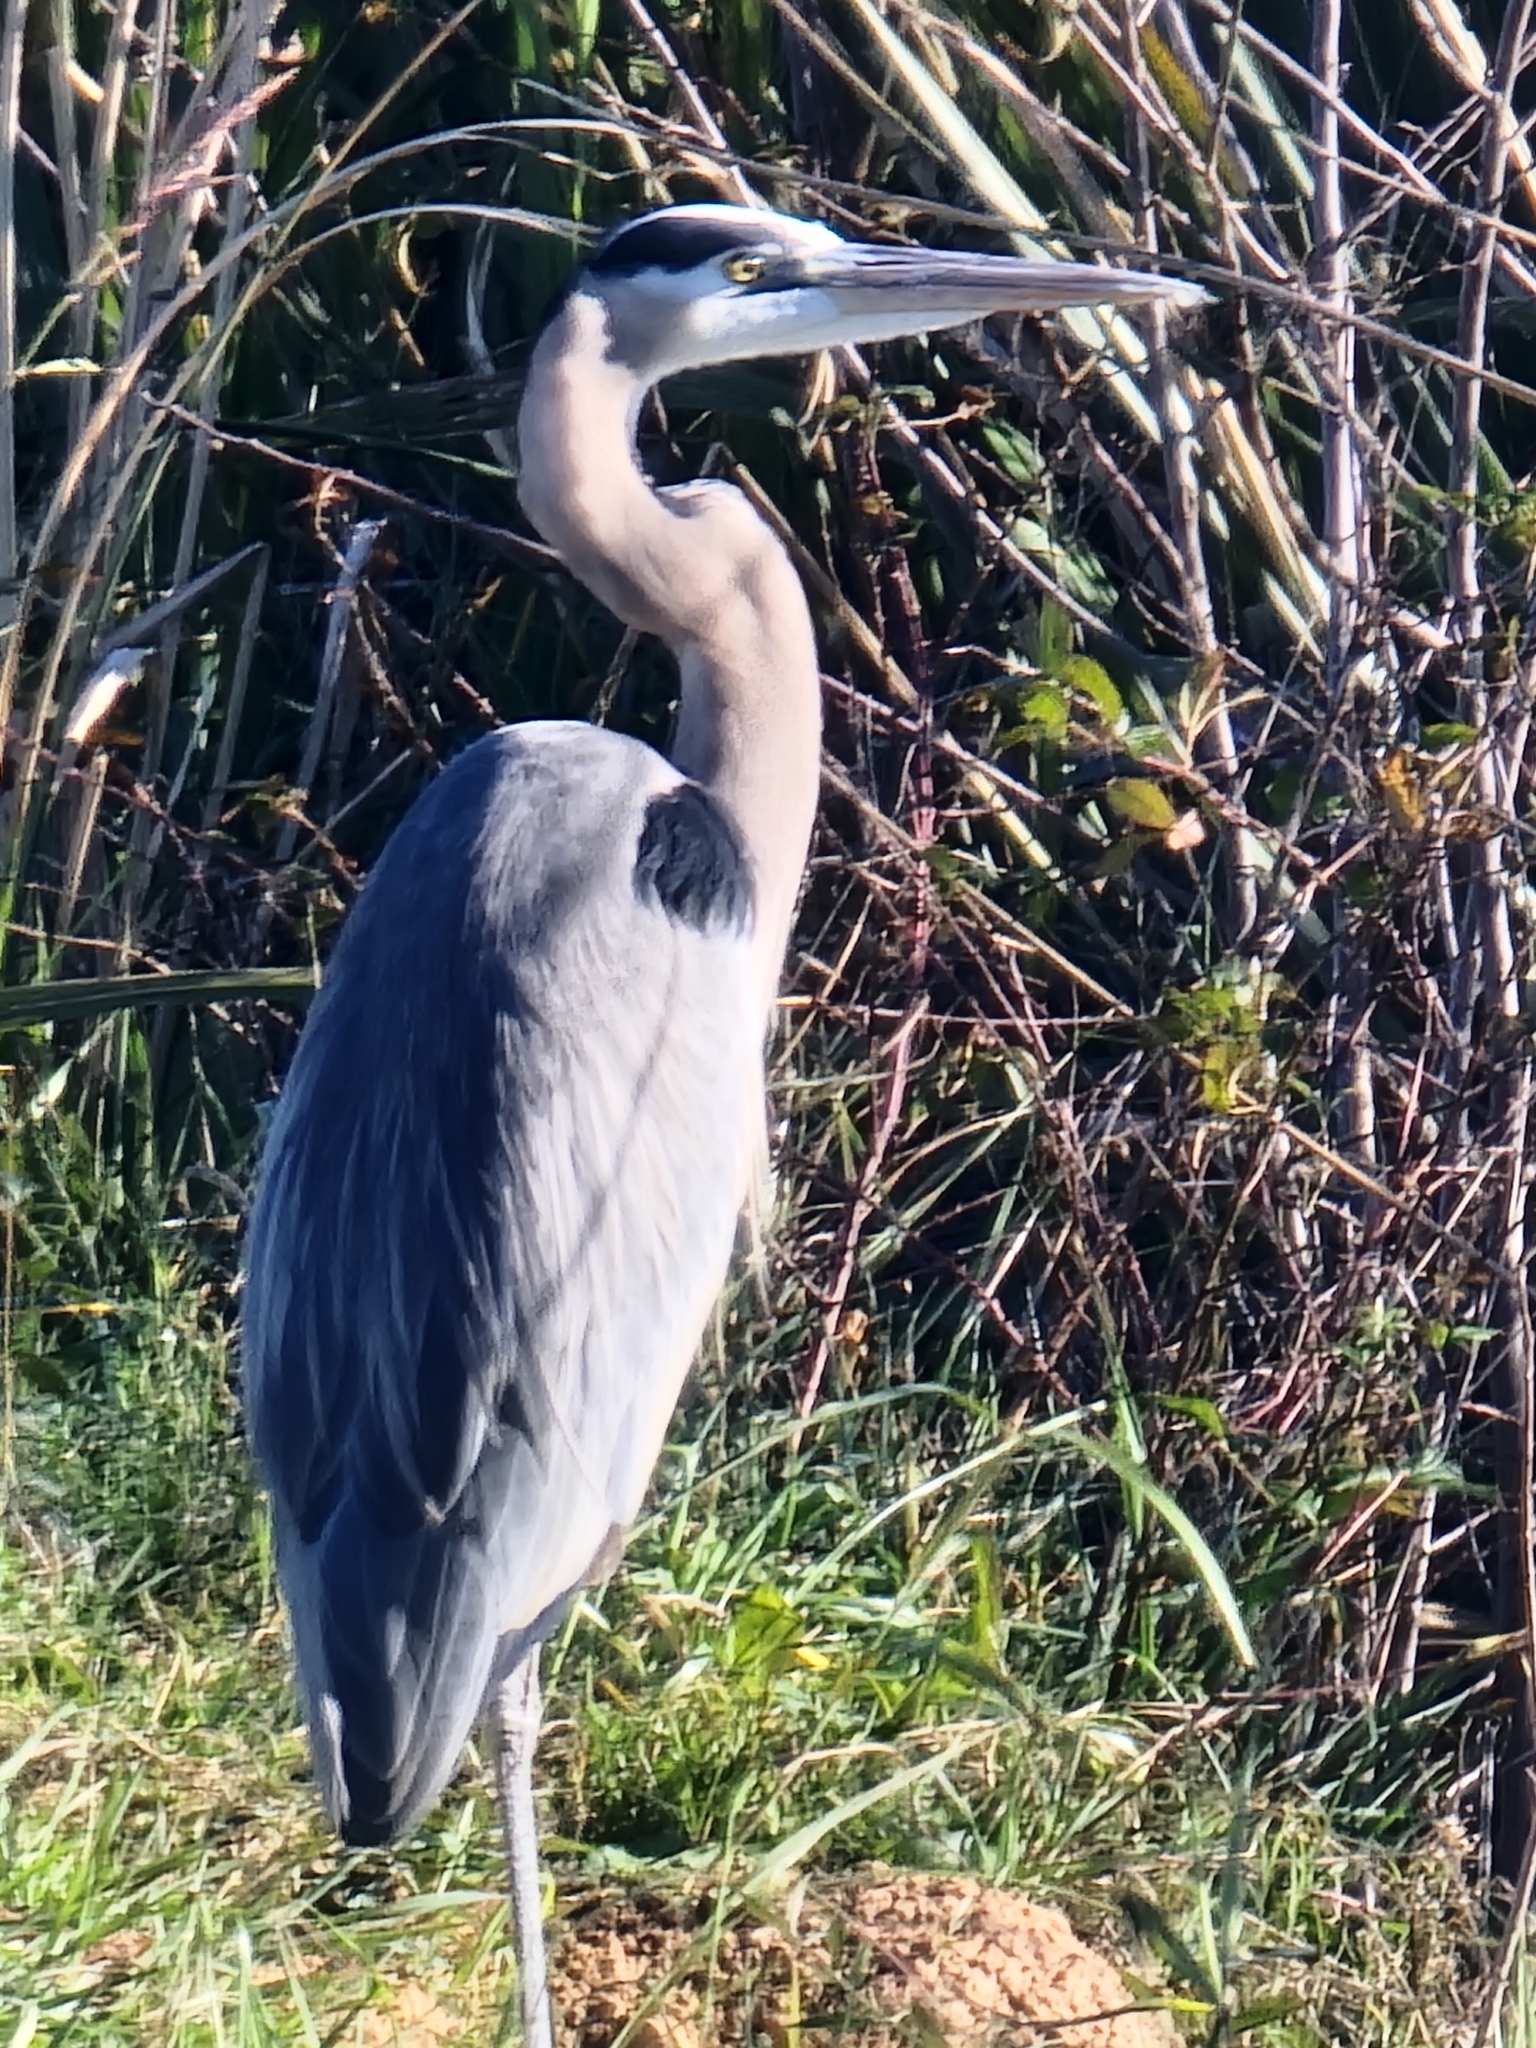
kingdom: Animalia
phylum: Chordata
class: Aves
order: Pelecaniformes
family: Ardeidae
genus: Ardea
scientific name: Ardea herodias
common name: Great blue heron
